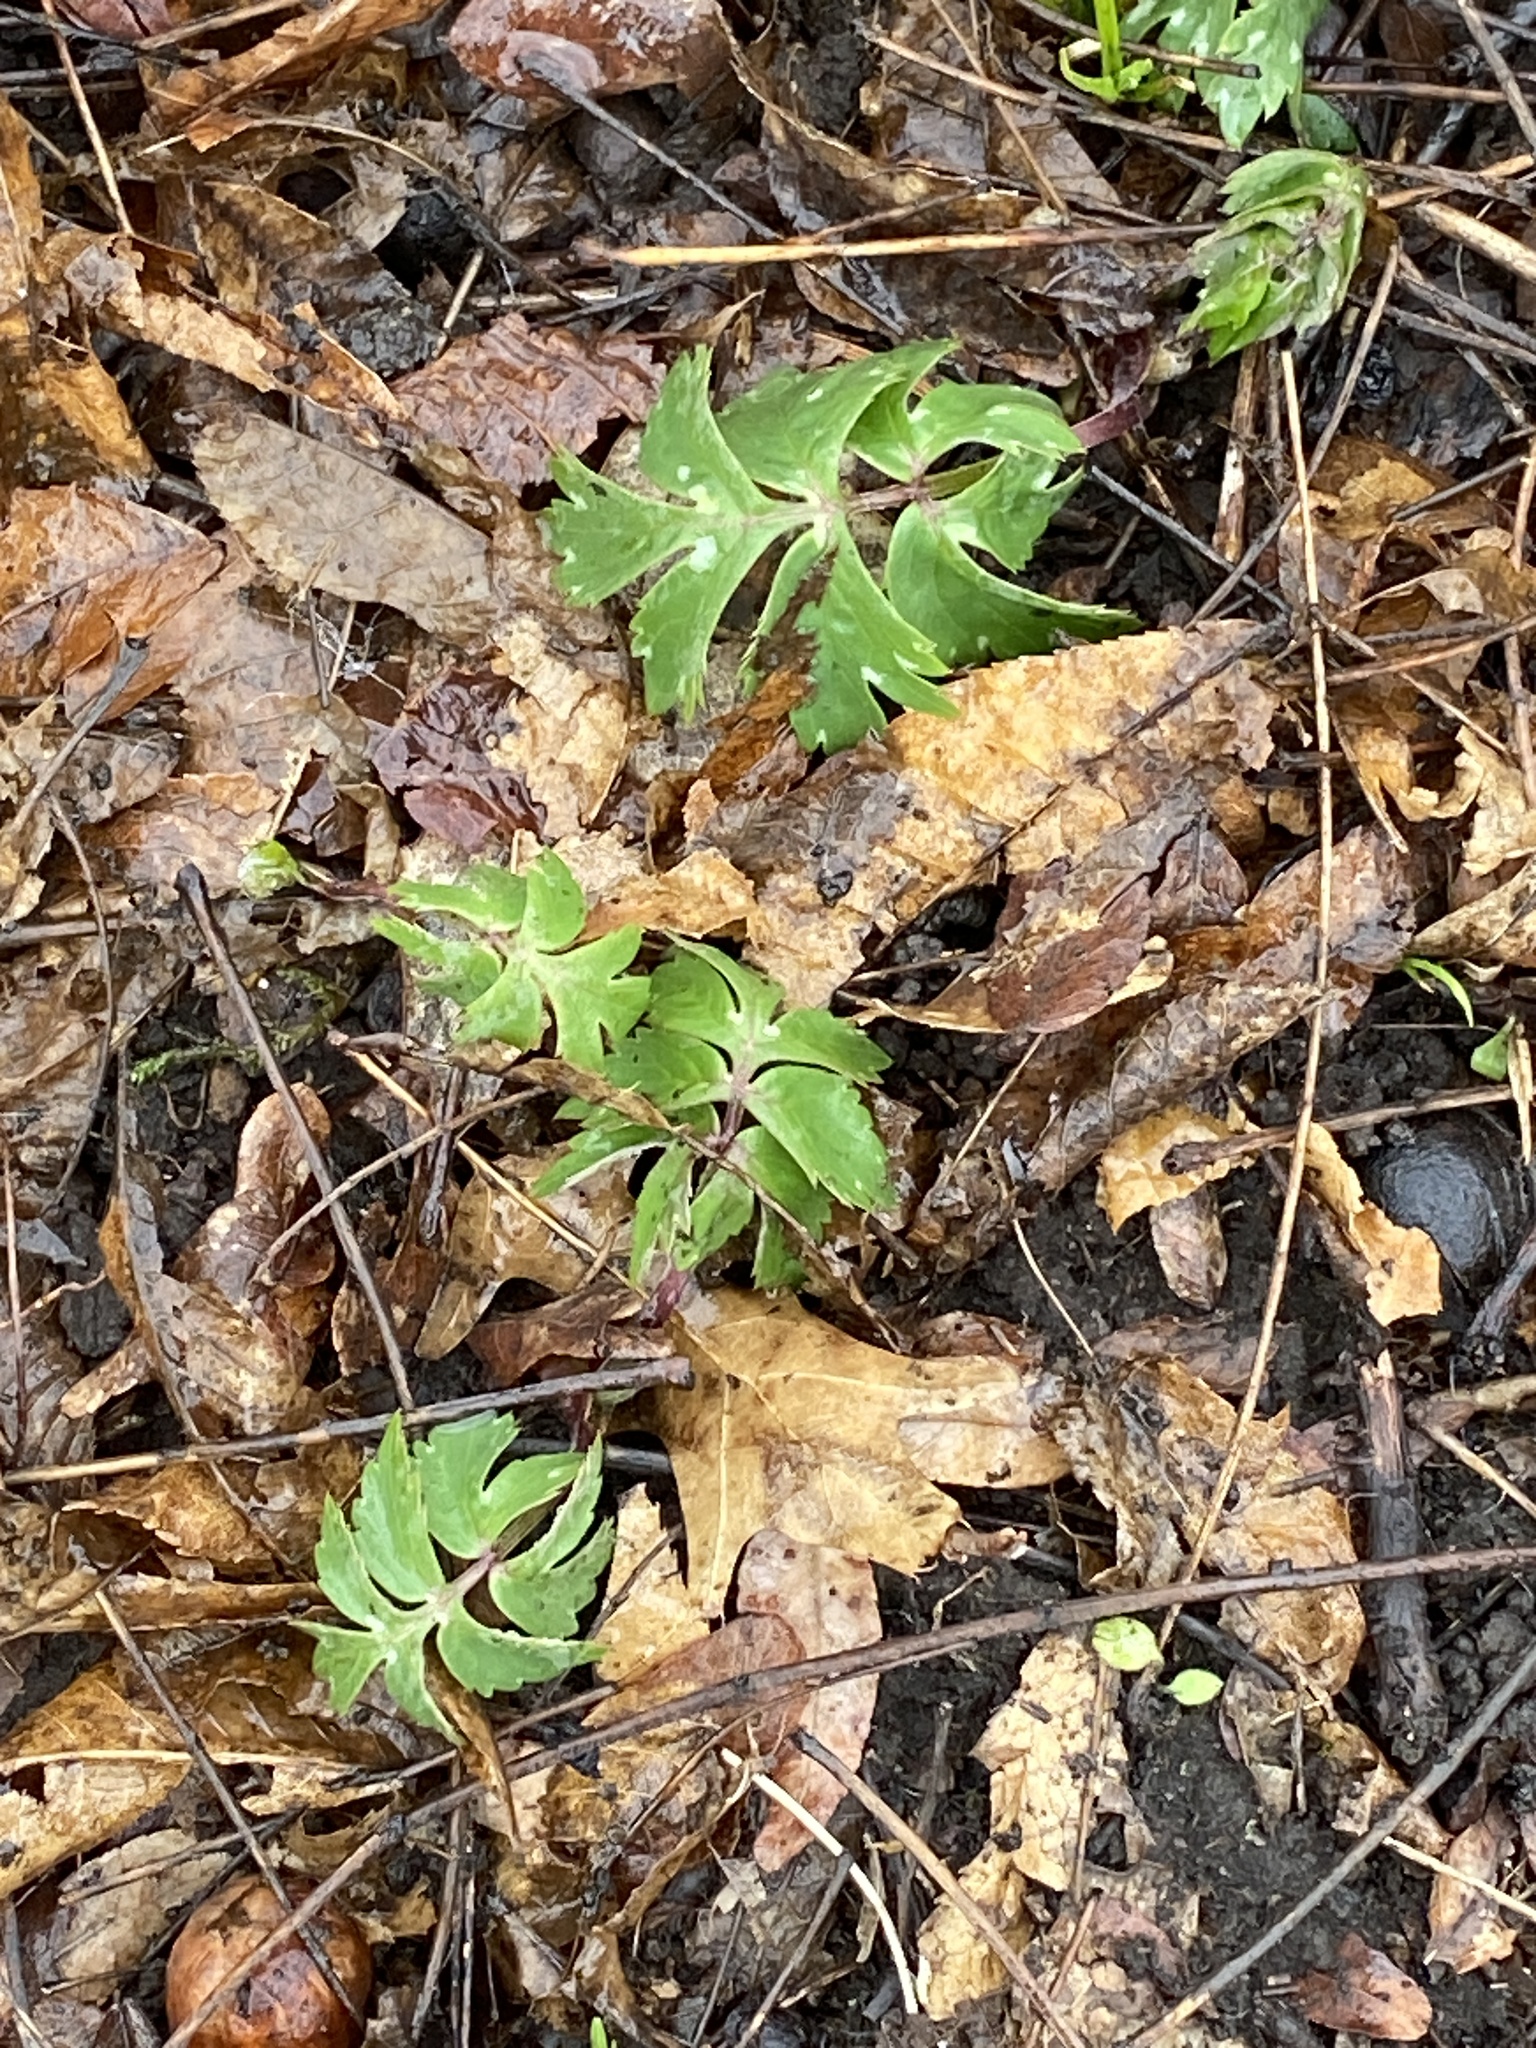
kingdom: Plantae
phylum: Tracheophyta
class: Magnoliopsida
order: Boraginales
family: Hydrophyllaceae
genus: Hydrophyllum
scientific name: Hydrophyllum virginianum
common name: Virginia waterleaf
